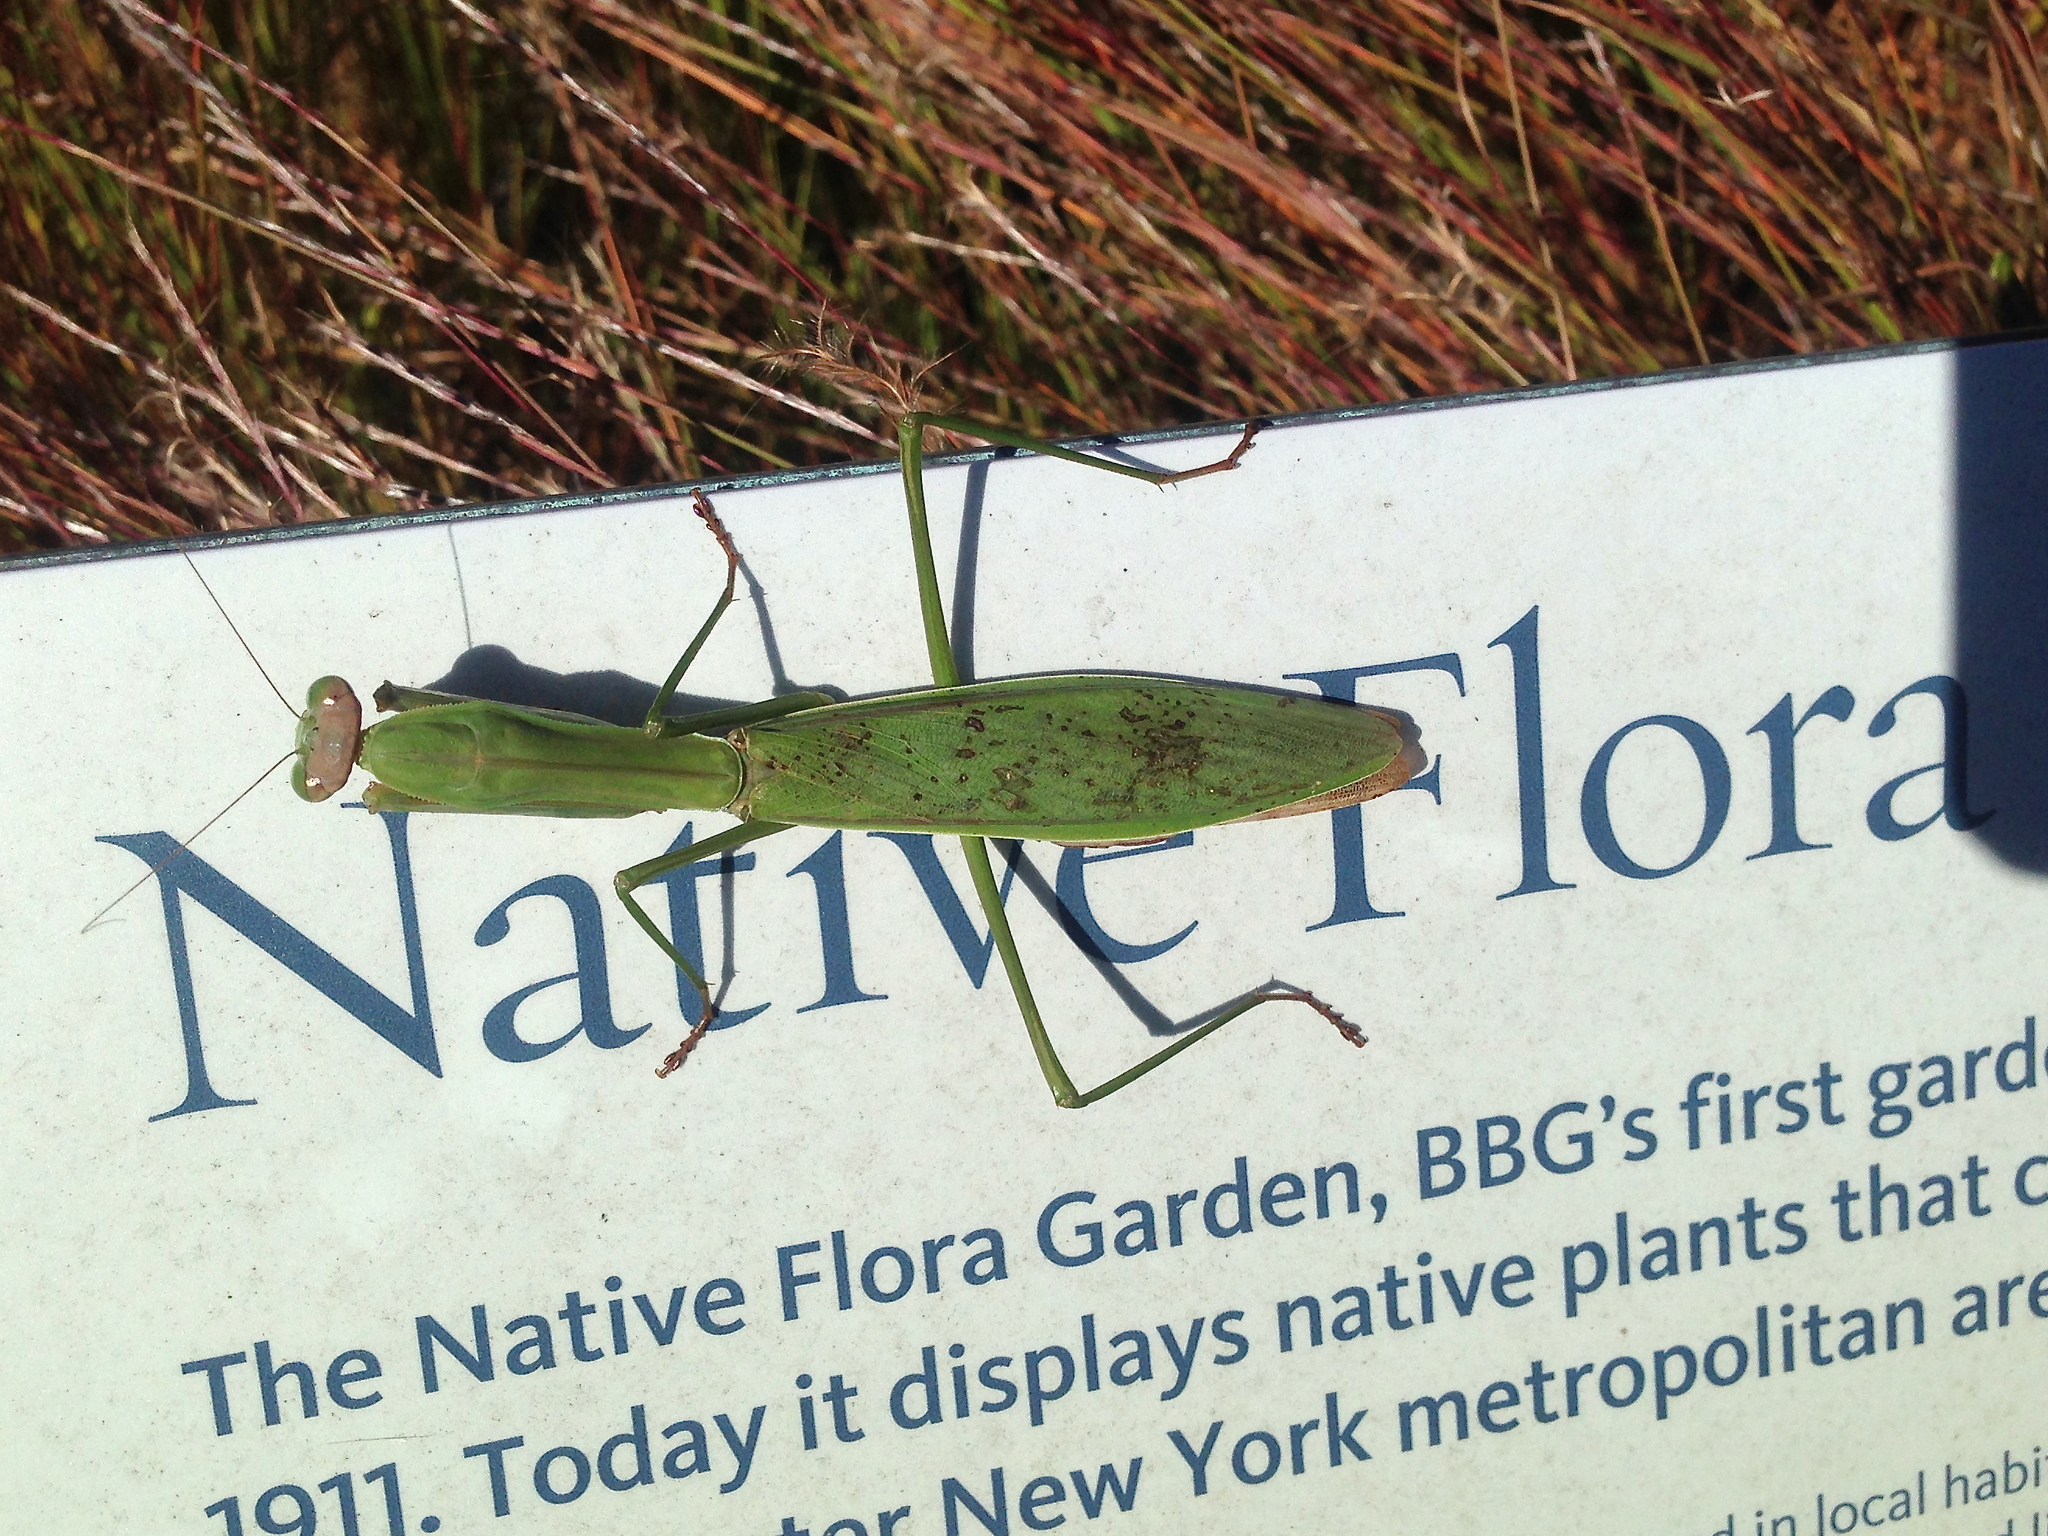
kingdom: Animalia
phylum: Arthropoda
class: Insecta
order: Mantodea
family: Mantidae
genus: Tenodera
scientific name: Tenodera sinensis
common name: Chinese mantis
